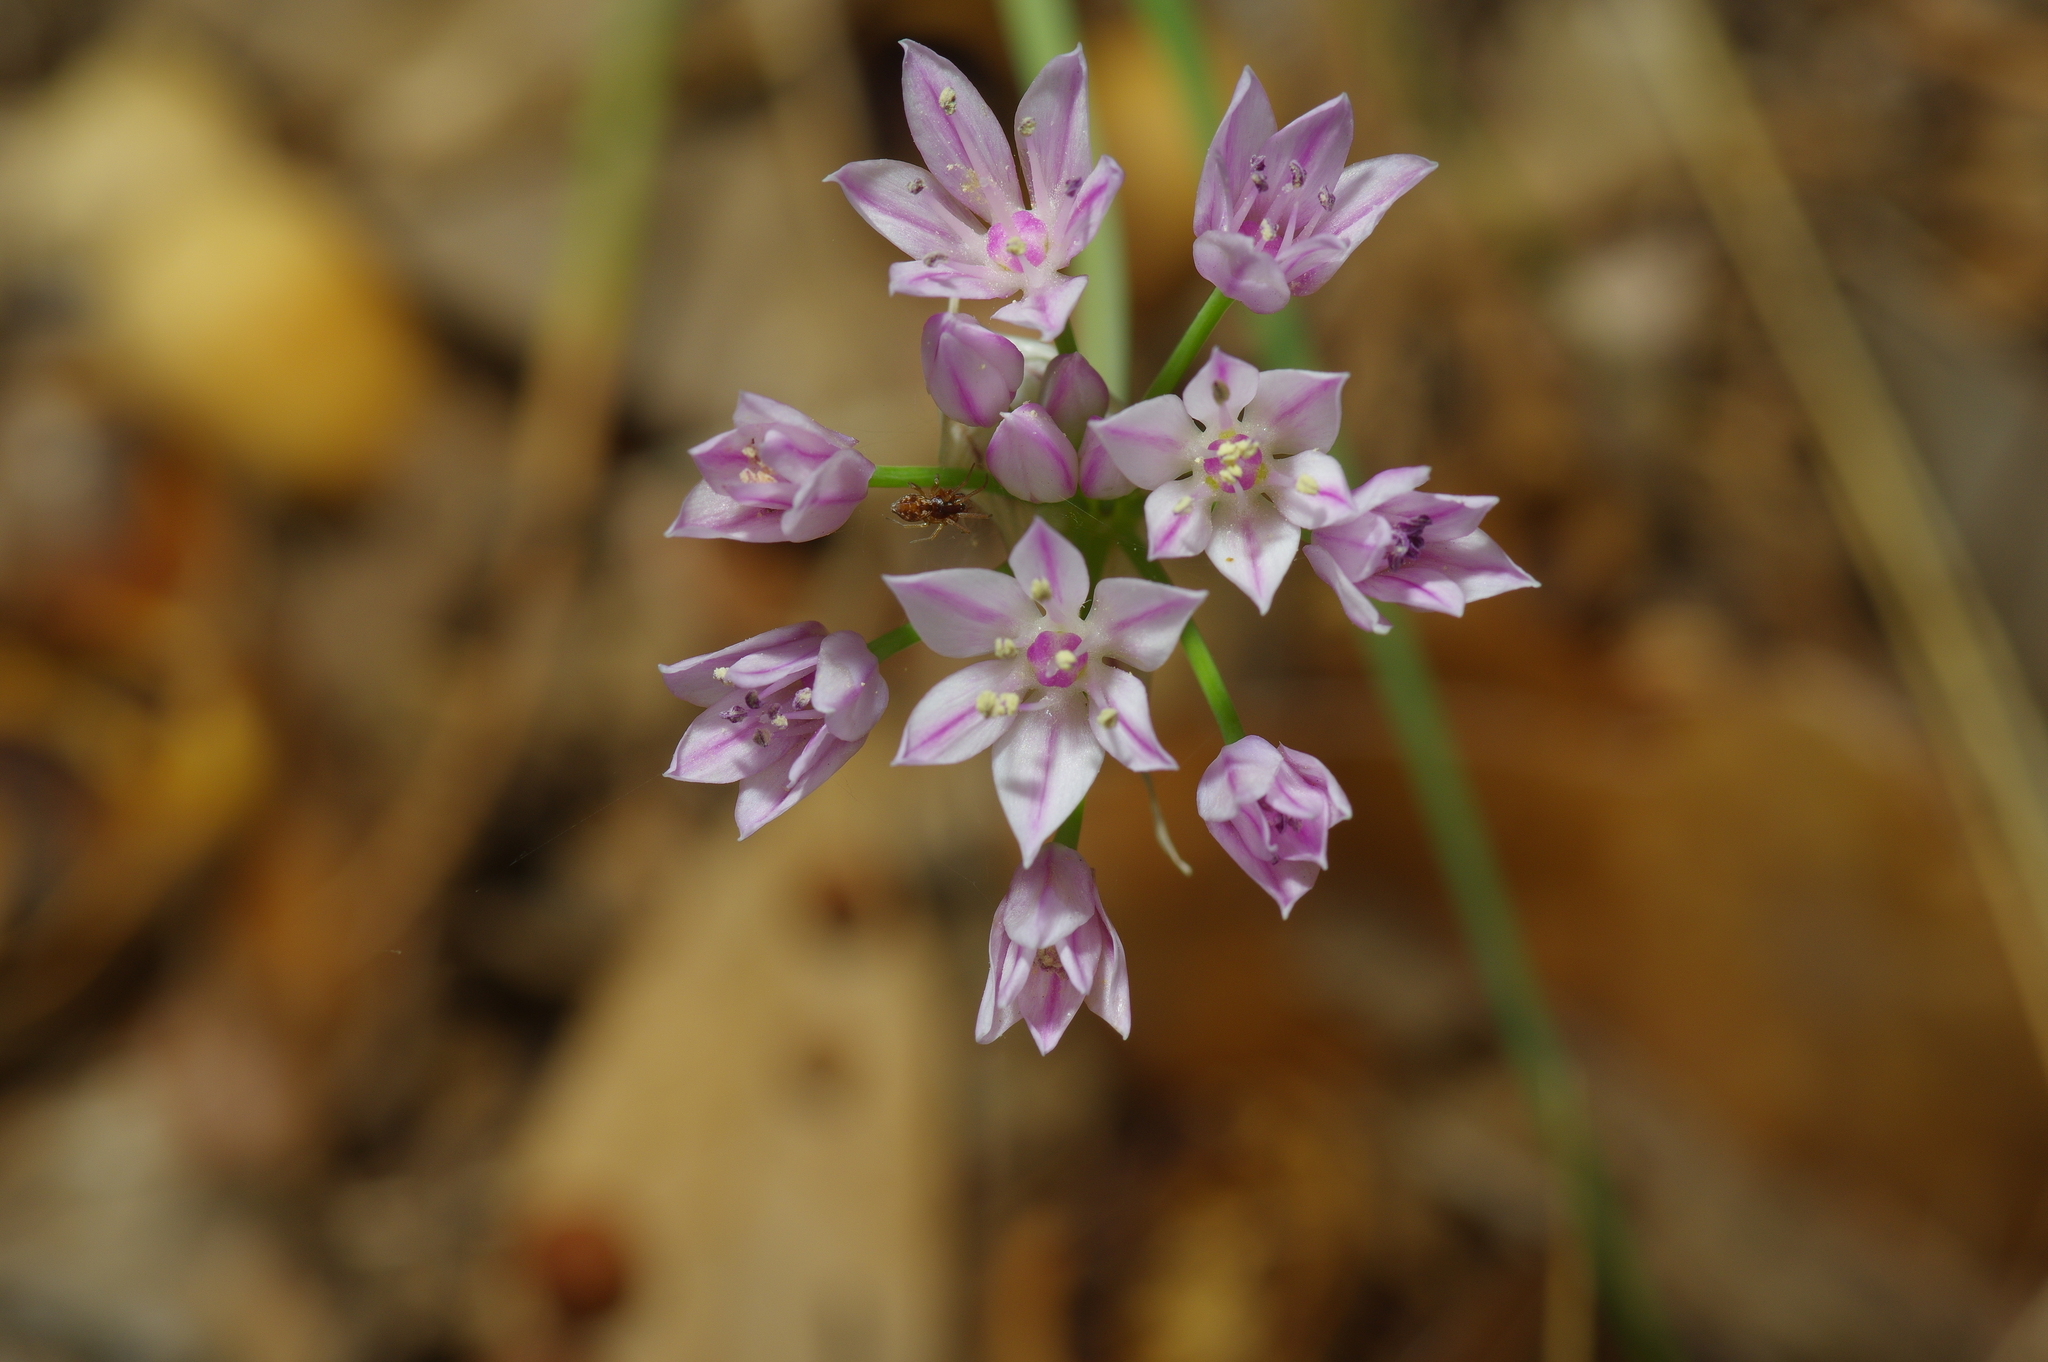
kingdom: Plantae
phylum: Tracheophyta
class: Liliopsida
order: Asparagales
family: Amaryllidaceae
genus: Allium
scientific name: Allium drummondii
